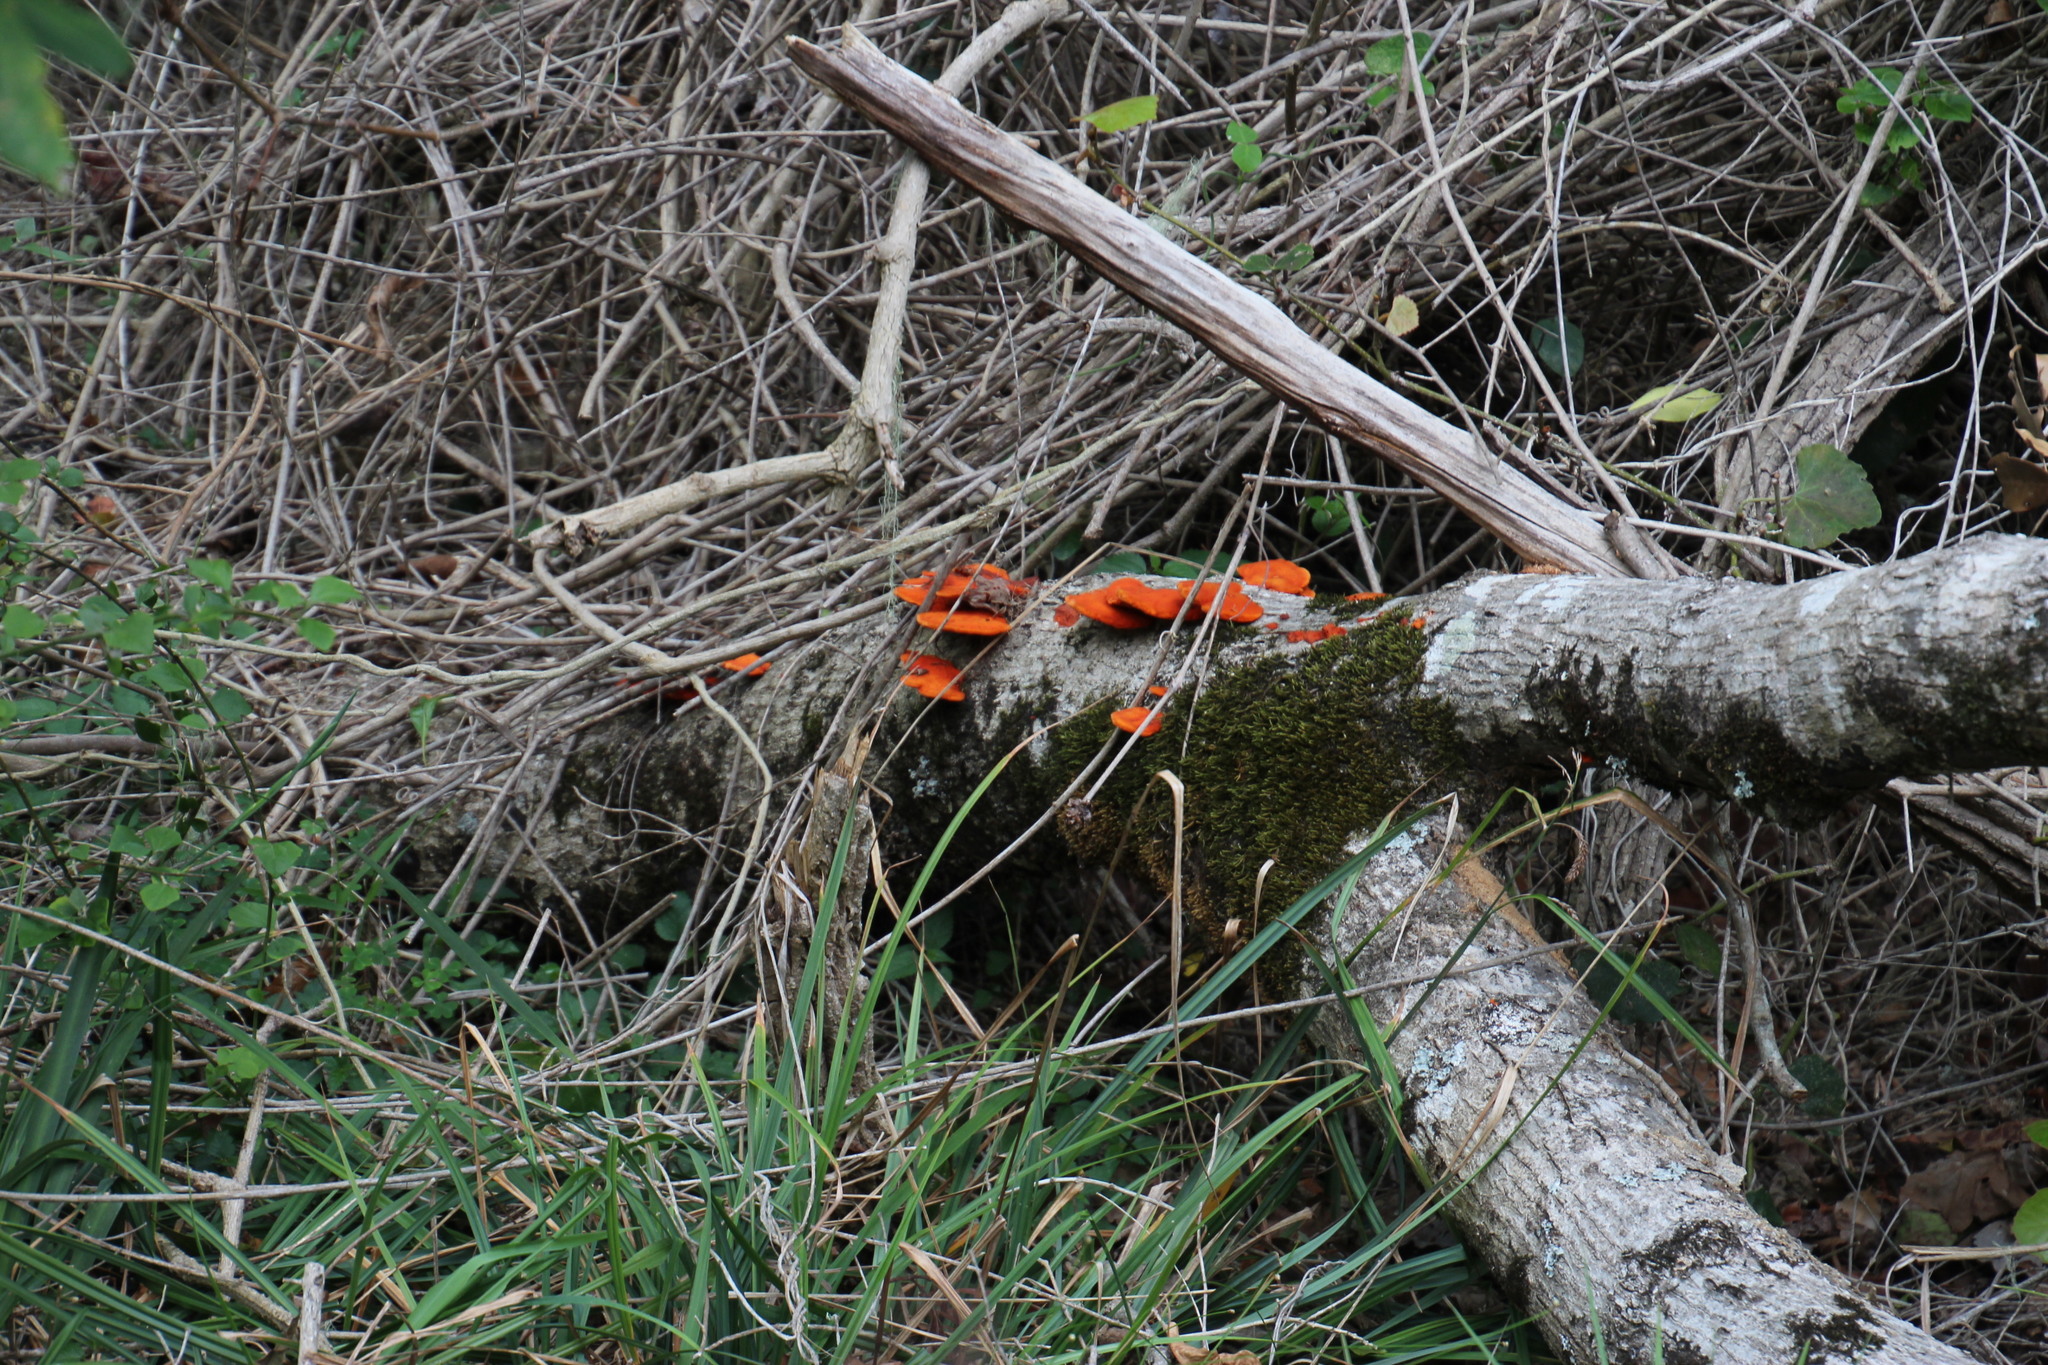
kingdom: Fungi
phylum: Basidiomycota
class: Agaricomycetes
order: Polyporales
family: Polyporaceae
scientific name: Polyporaceae
